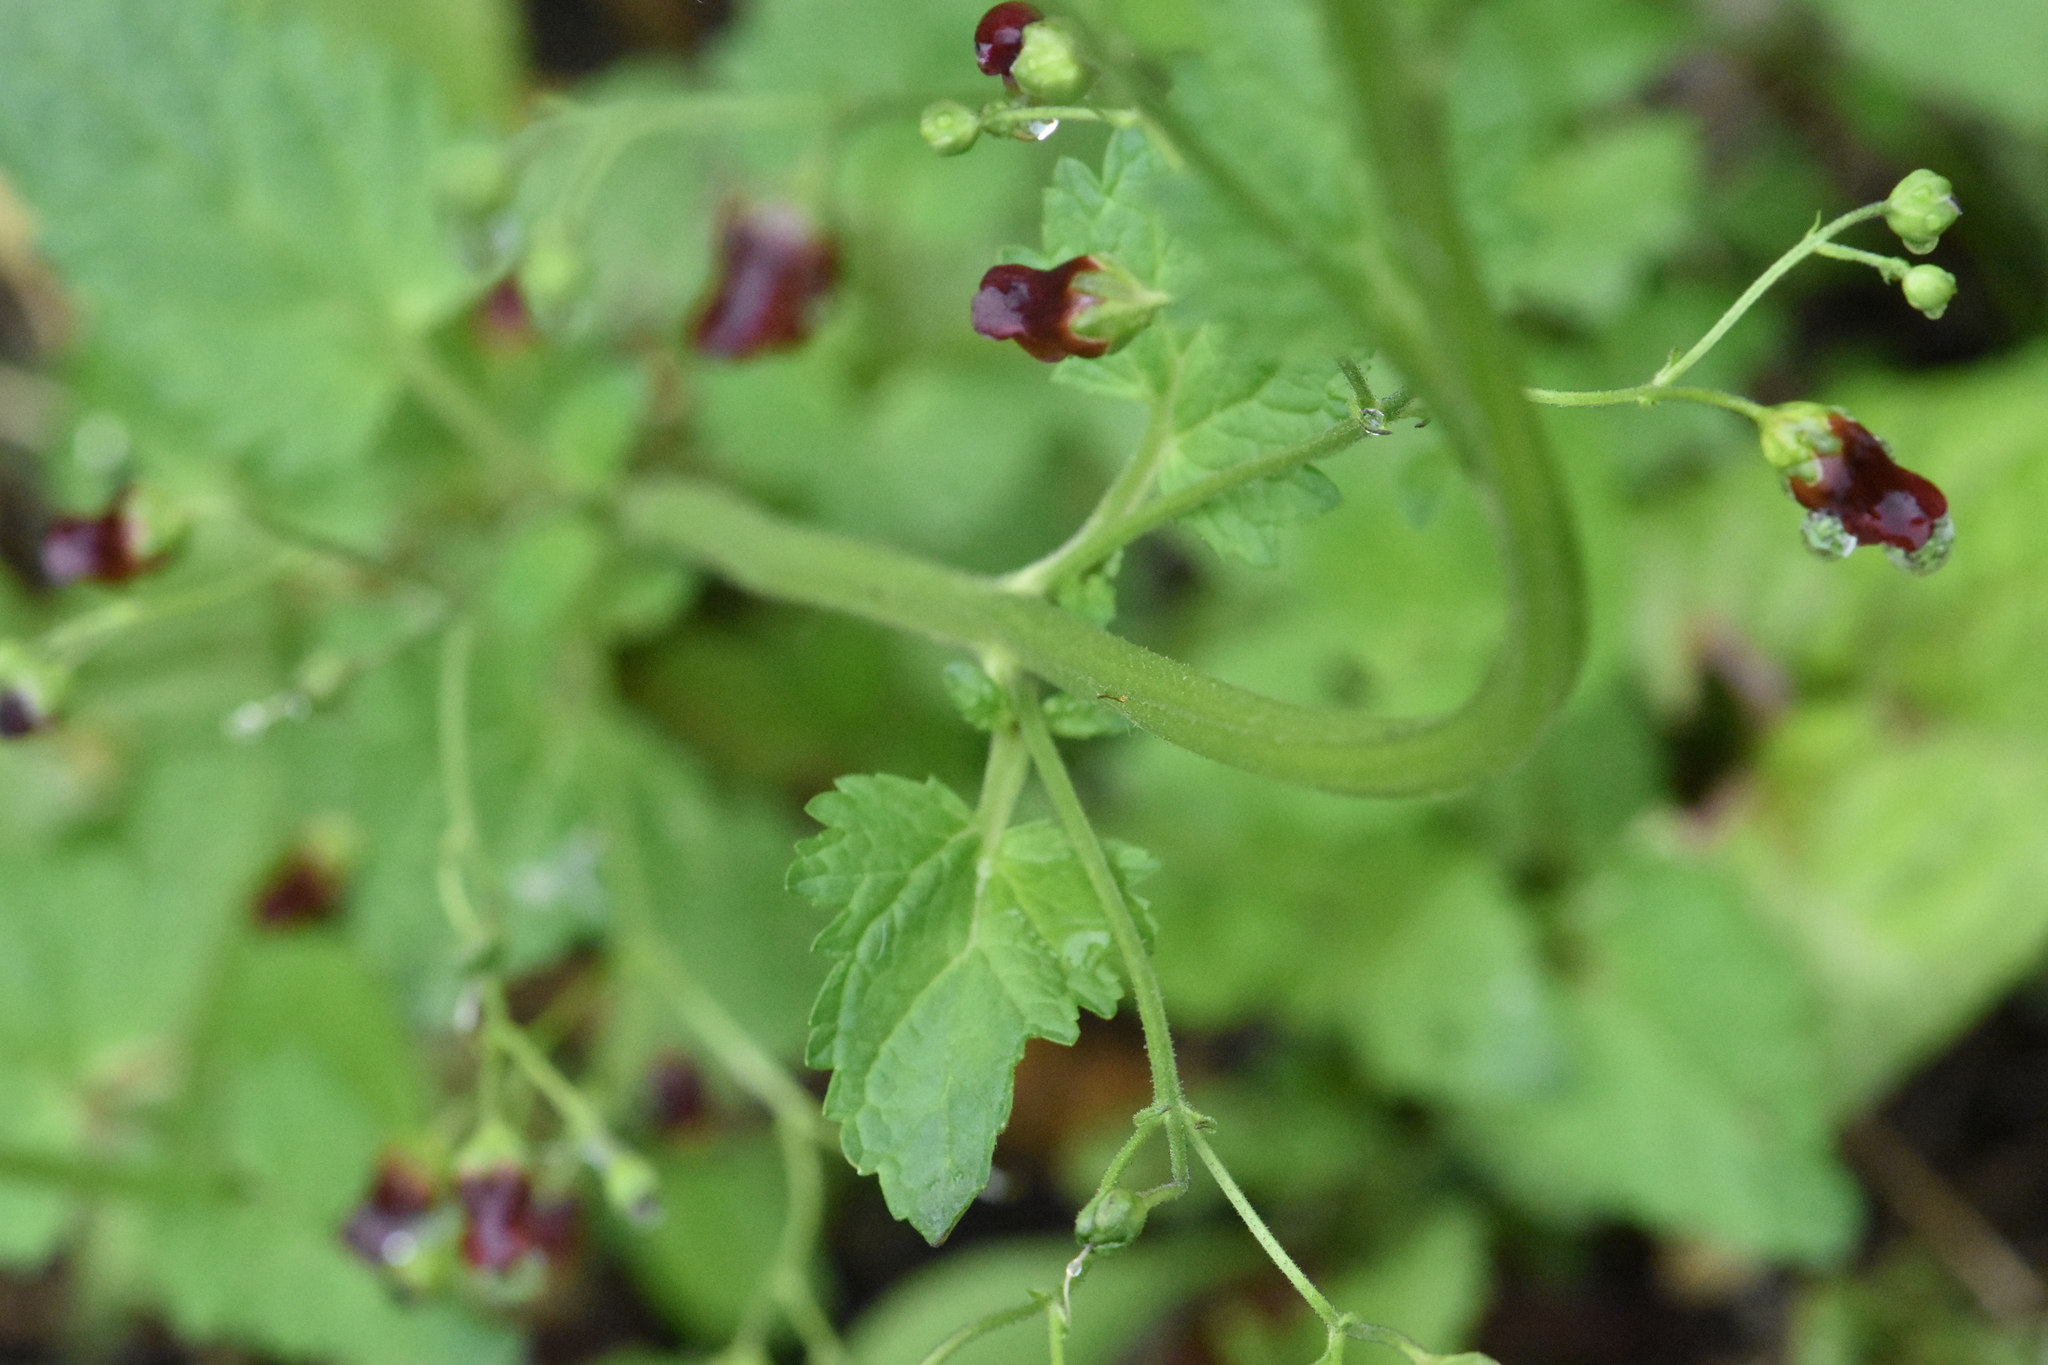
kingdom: Plantae
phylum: Tracheophyta
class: Magnoliopsida
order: Lamiales
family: Scrophulariaceae
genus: Scrophularia
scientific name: Scrophularia nodosa
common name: Common figwort
